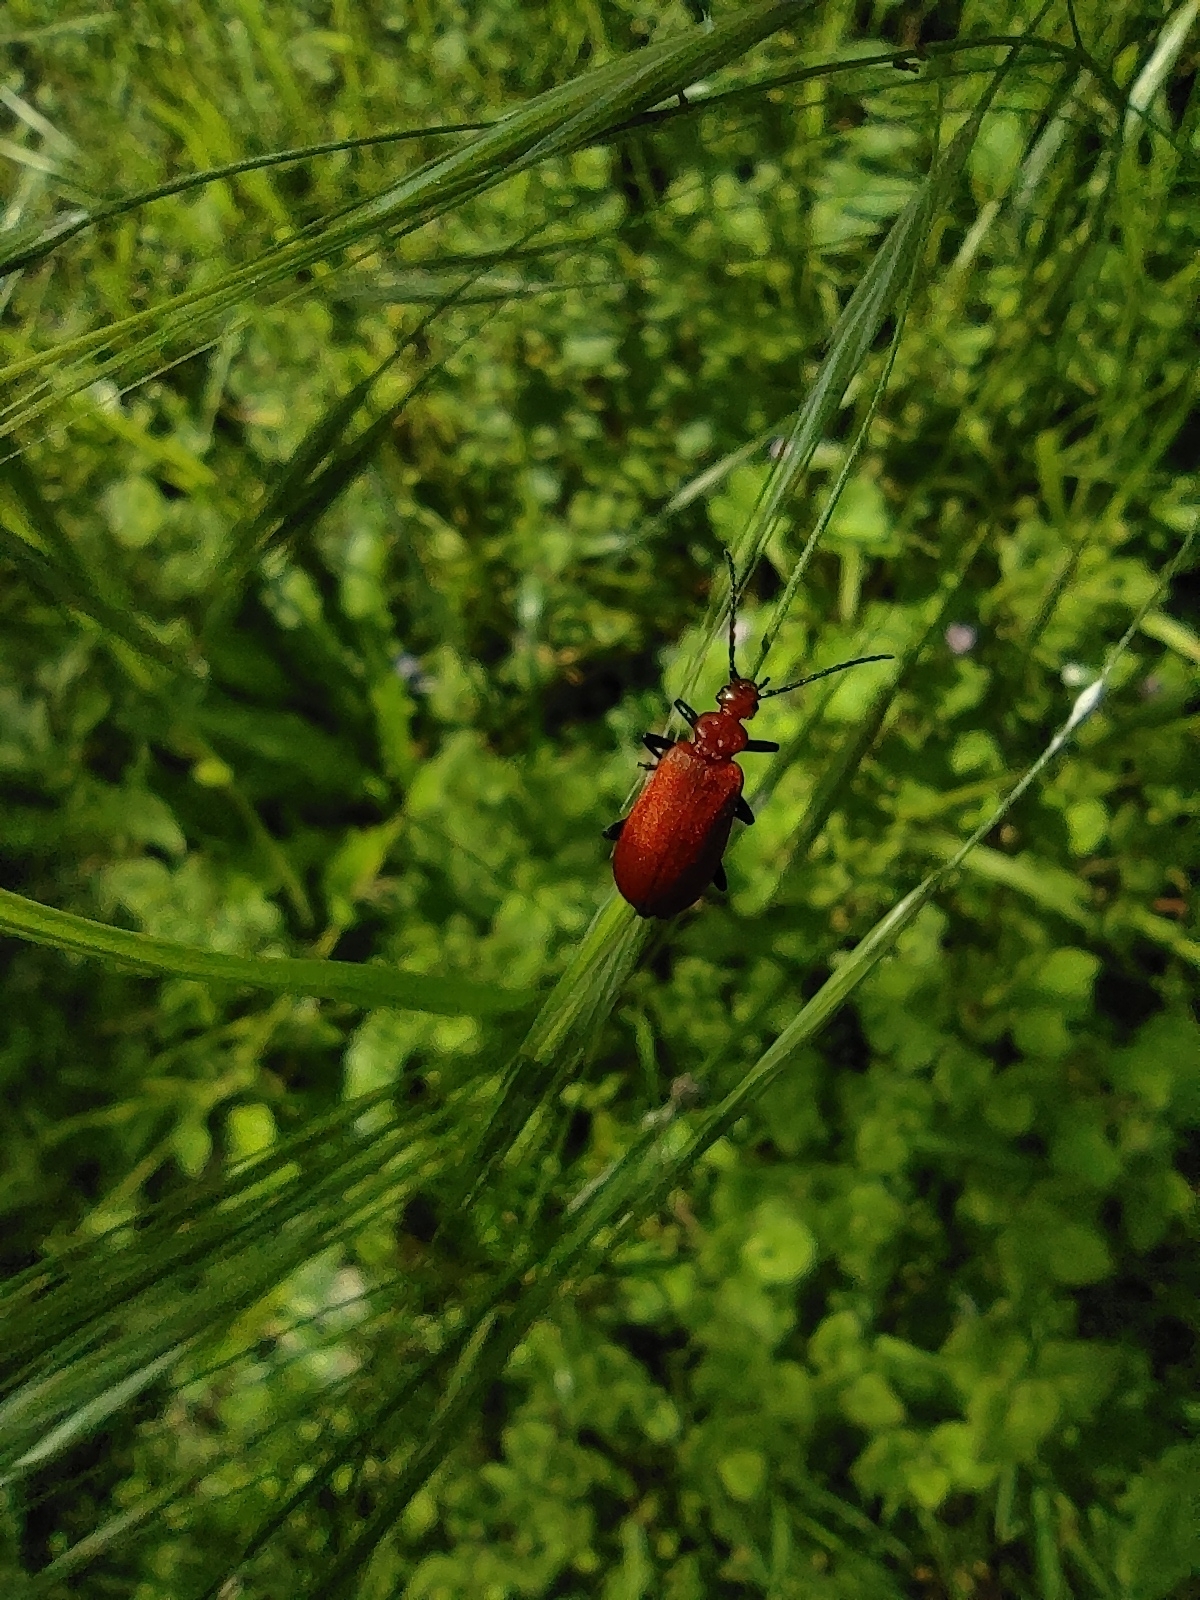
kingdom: Animalia
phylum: Arthropoda
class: Insecta
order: Coleoptera
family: Pyrochroidae
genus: Pyrochroa
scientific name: Pyrochroa serraticornis
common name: Red-headed cardinal beetle
